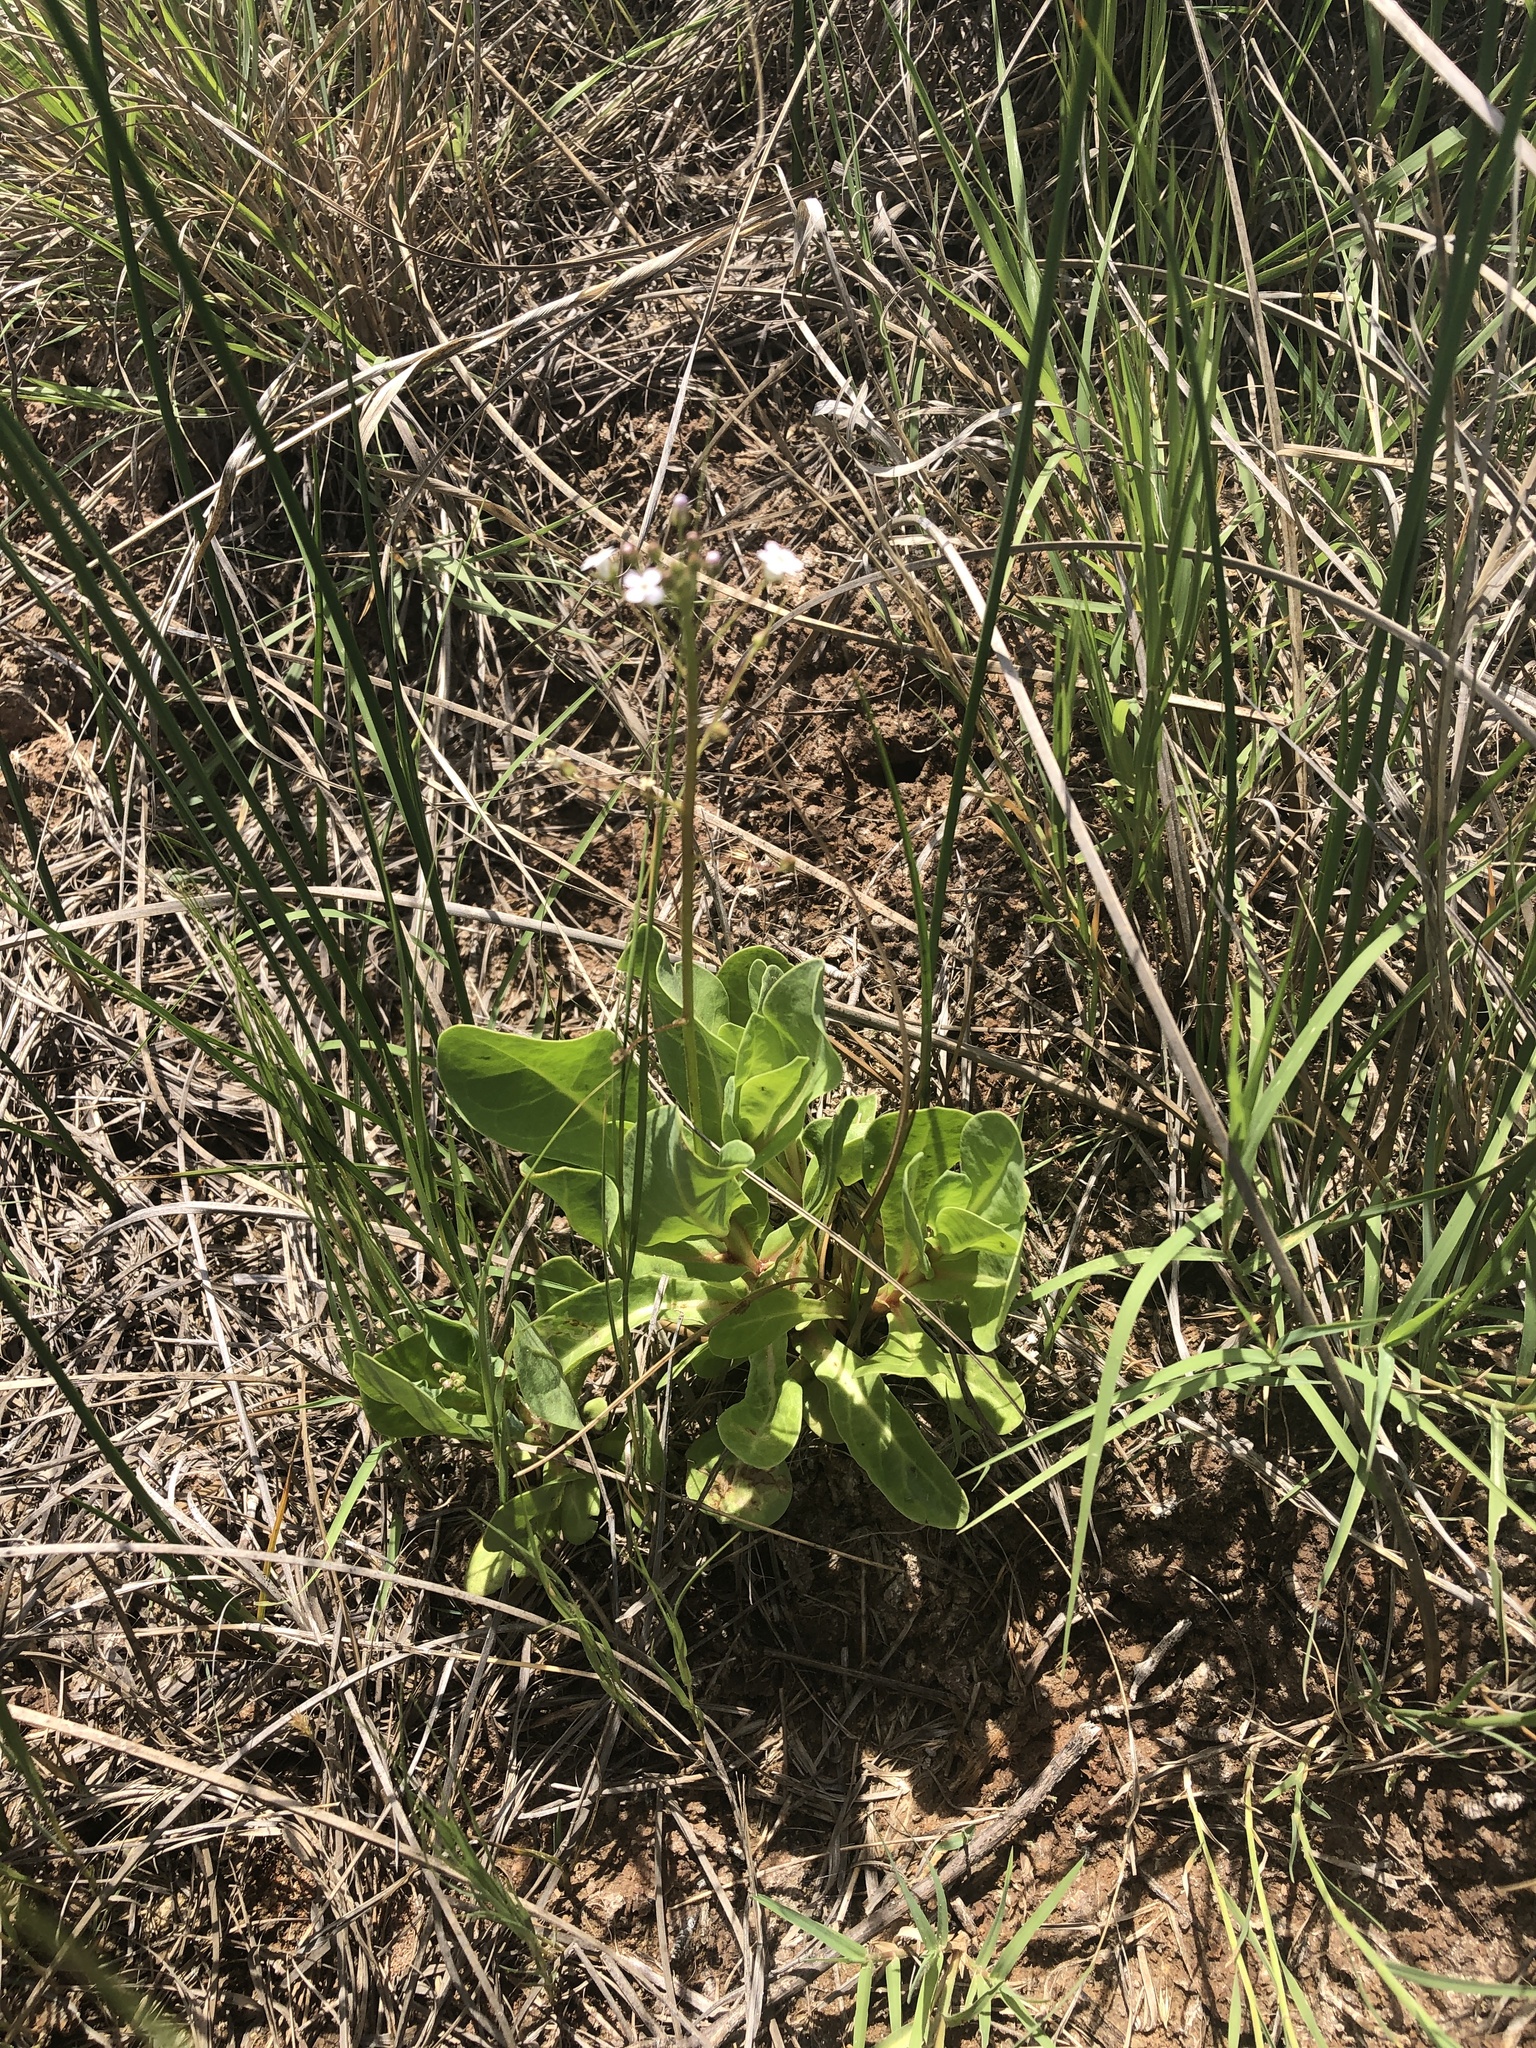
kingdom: Plantae
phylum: Tracheophyta
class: Magnoliopsida
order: Ericales
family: Primulaceae
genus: Samolus
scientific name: Samolus ebracteatus
